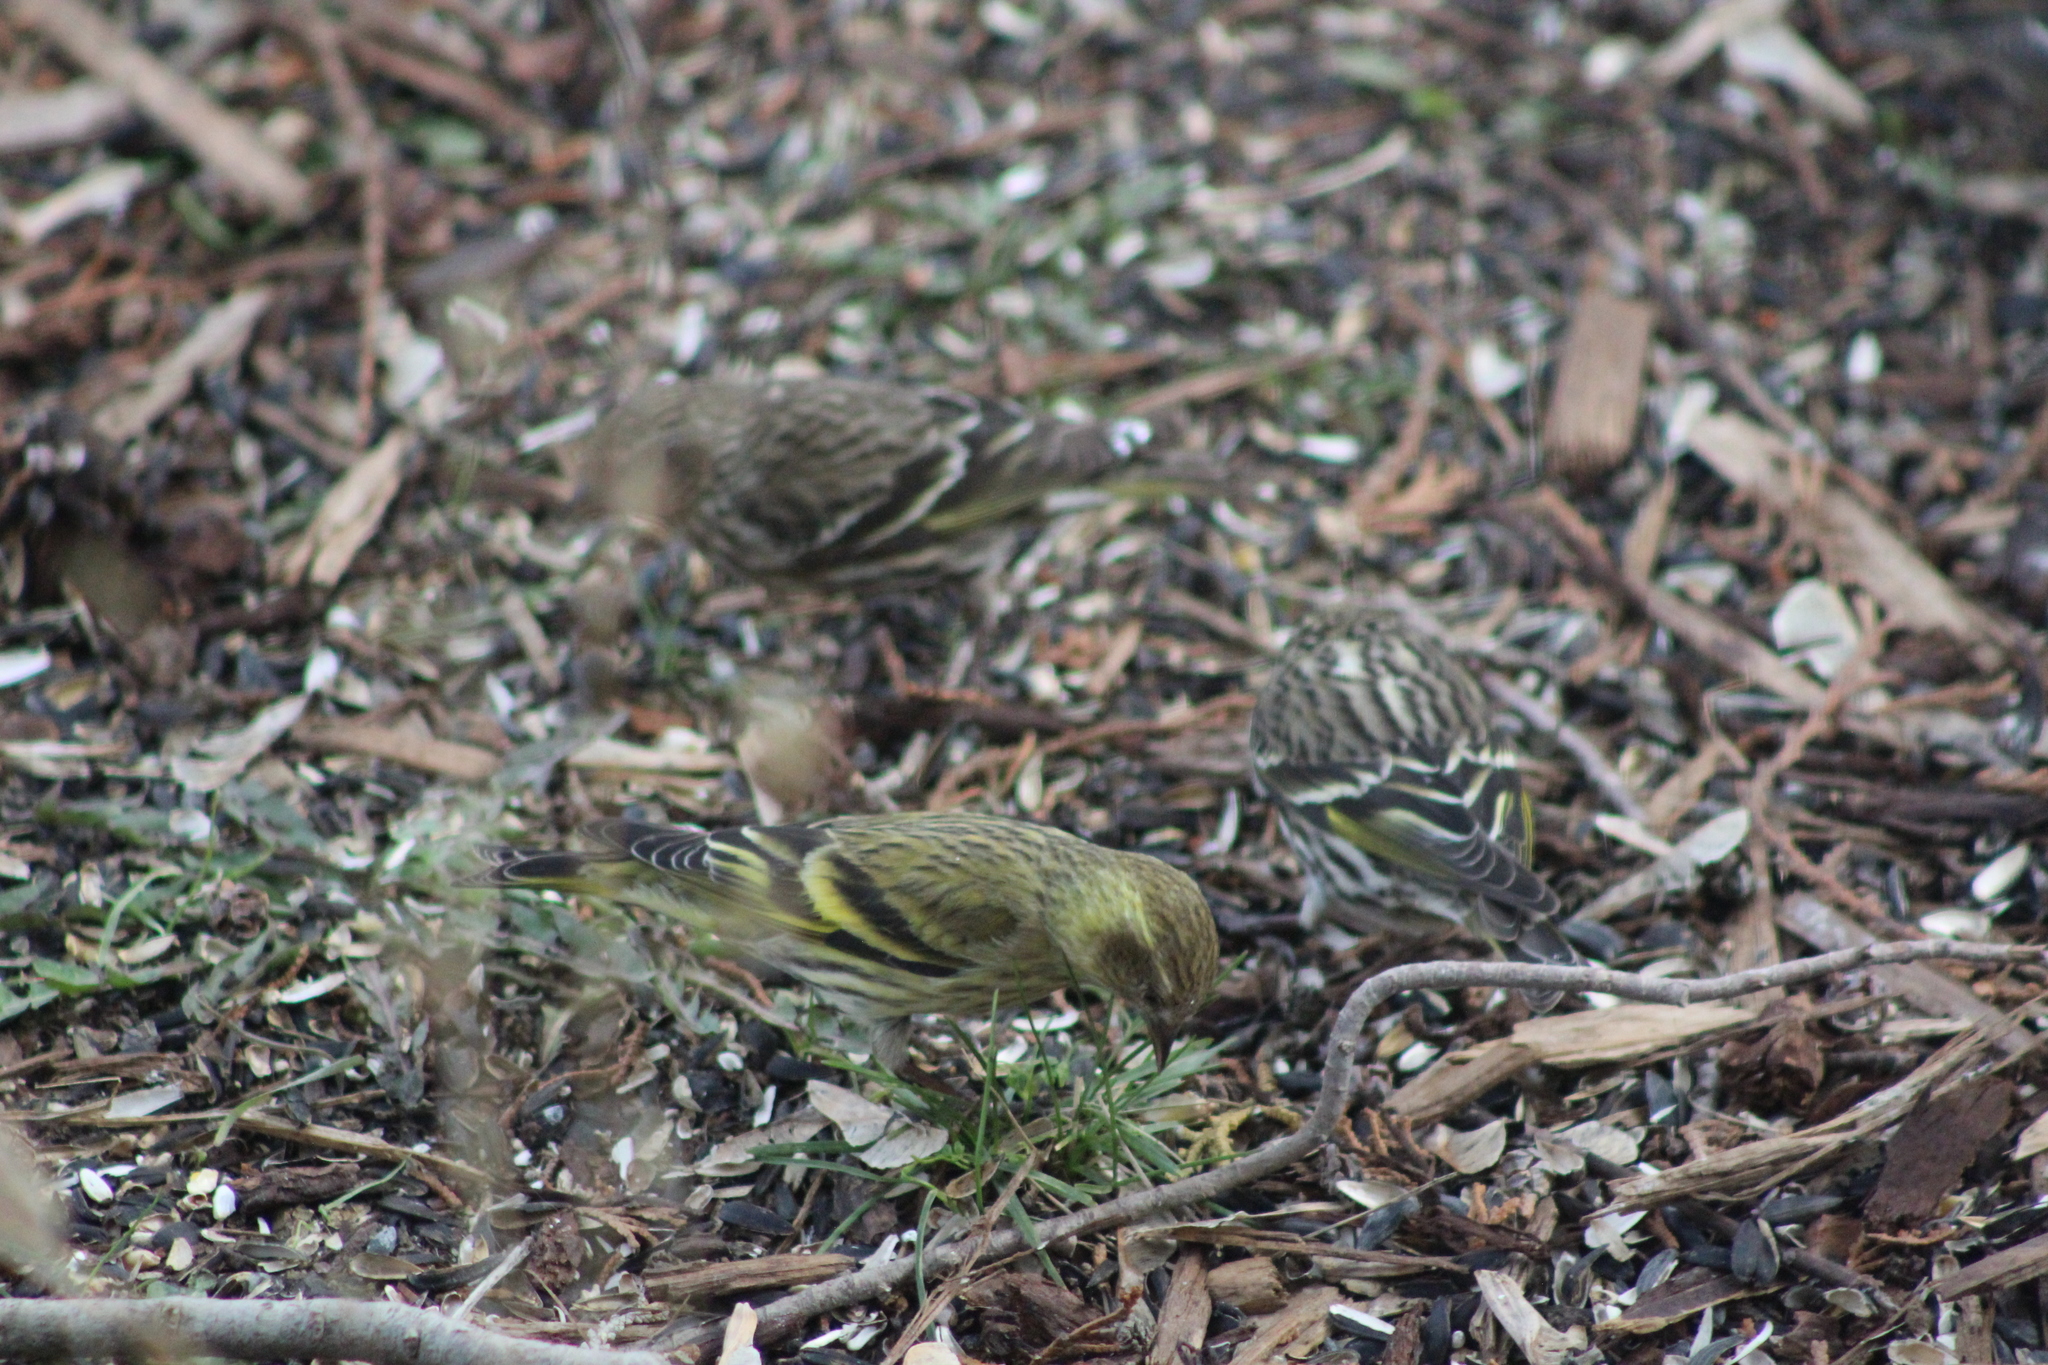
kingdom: Animalia
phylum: Chordata
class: Aves
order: Passeriformes
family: Fringillidae
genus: Spinus
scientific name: Spinus pinus
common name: Pine siskin
